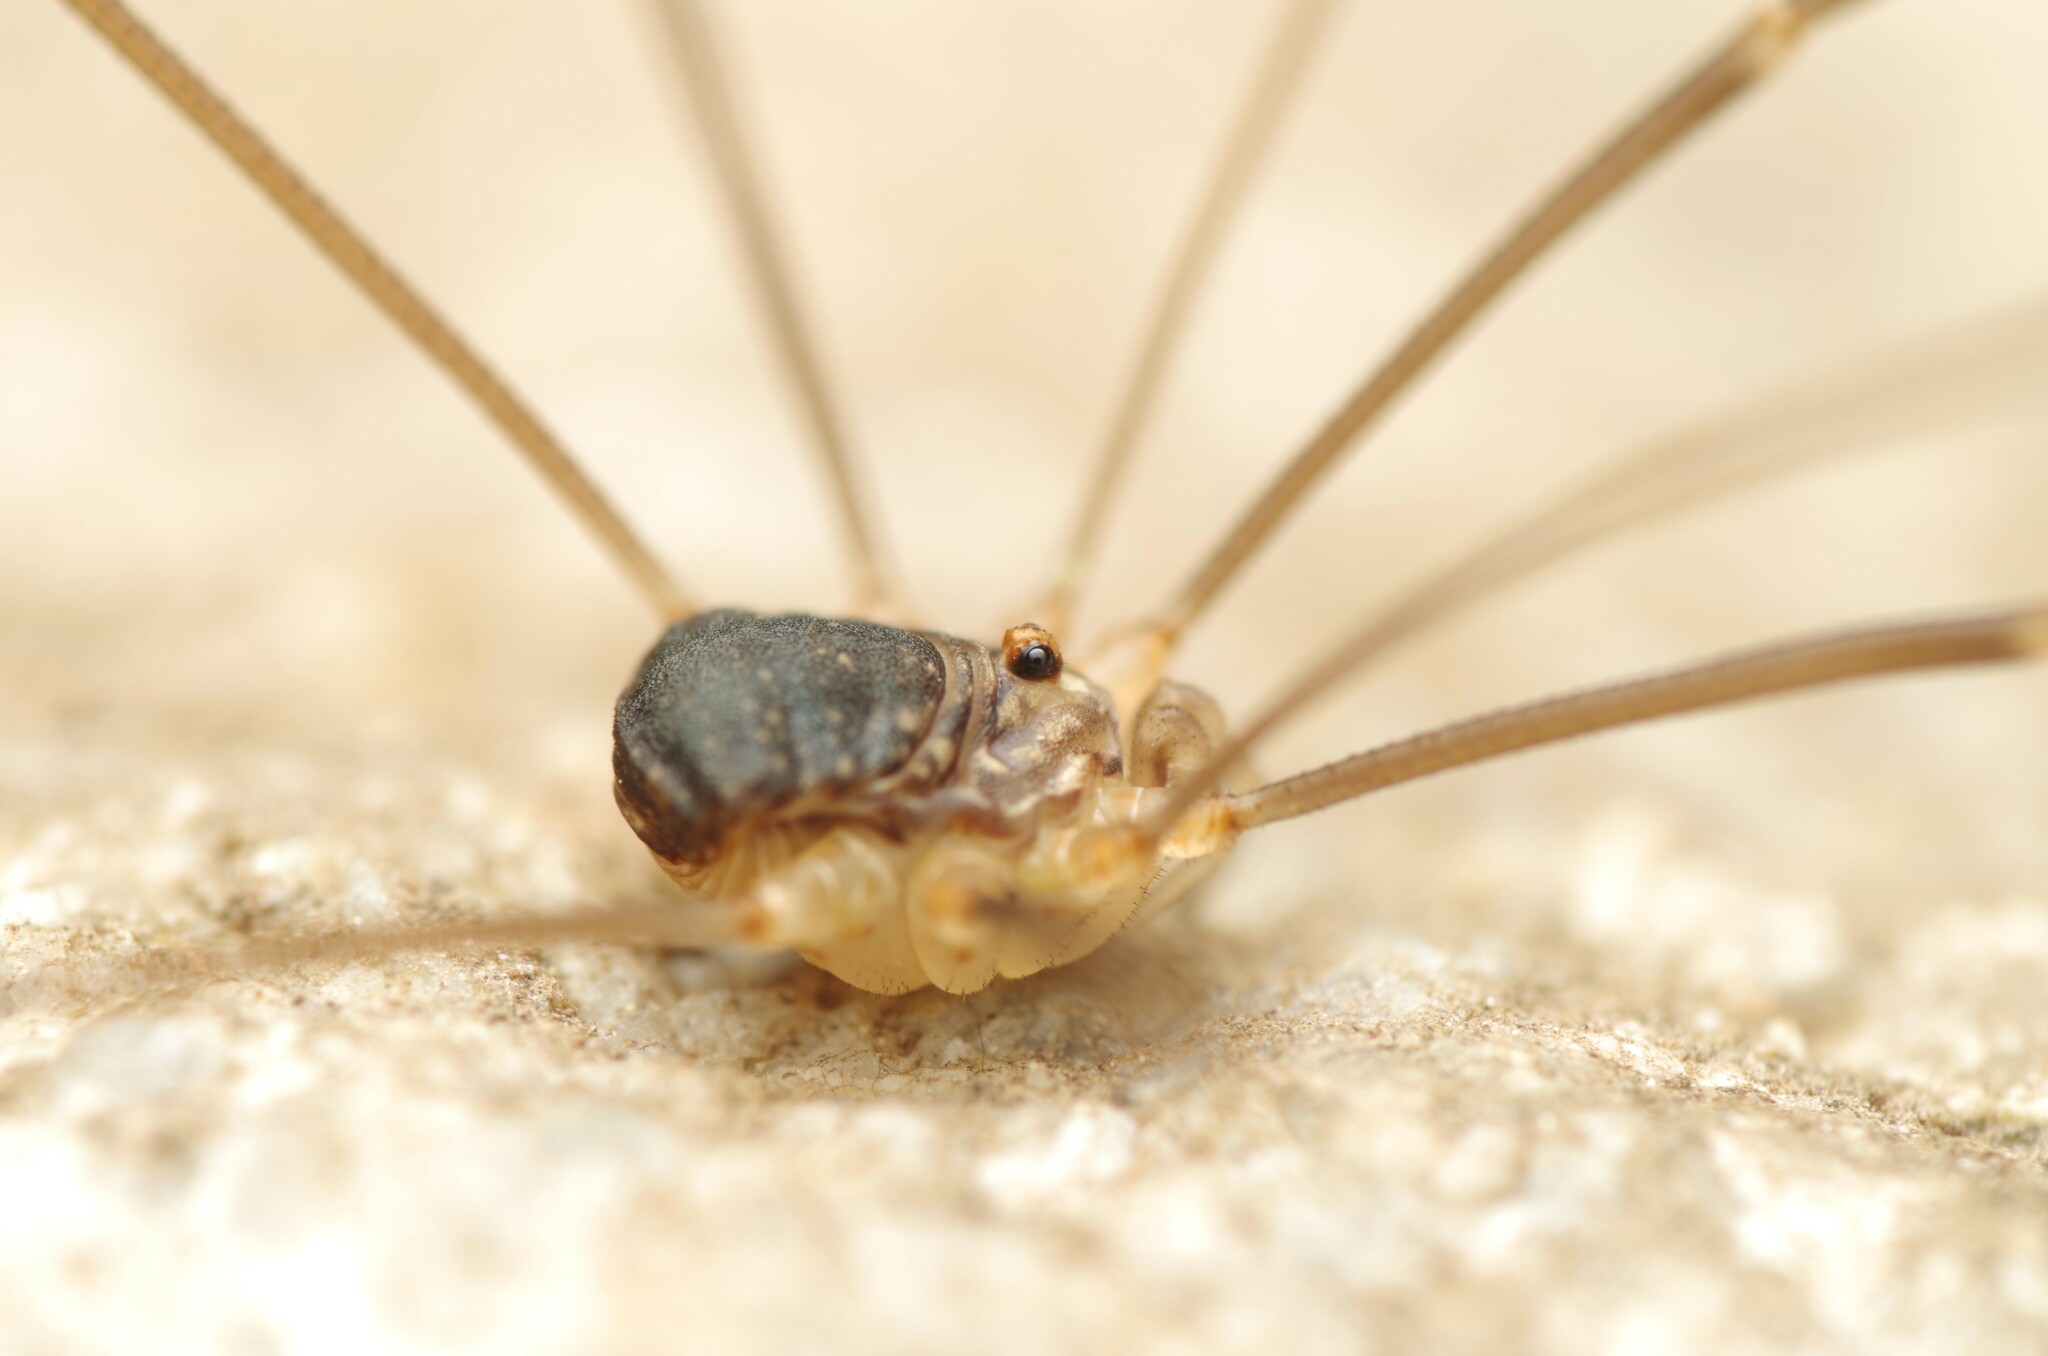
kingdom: Animalia
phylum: Arthropoda
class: Arachnida
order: Opiliones
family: Sclerosomatidae
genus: Nelima
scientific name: Nelima gothica
